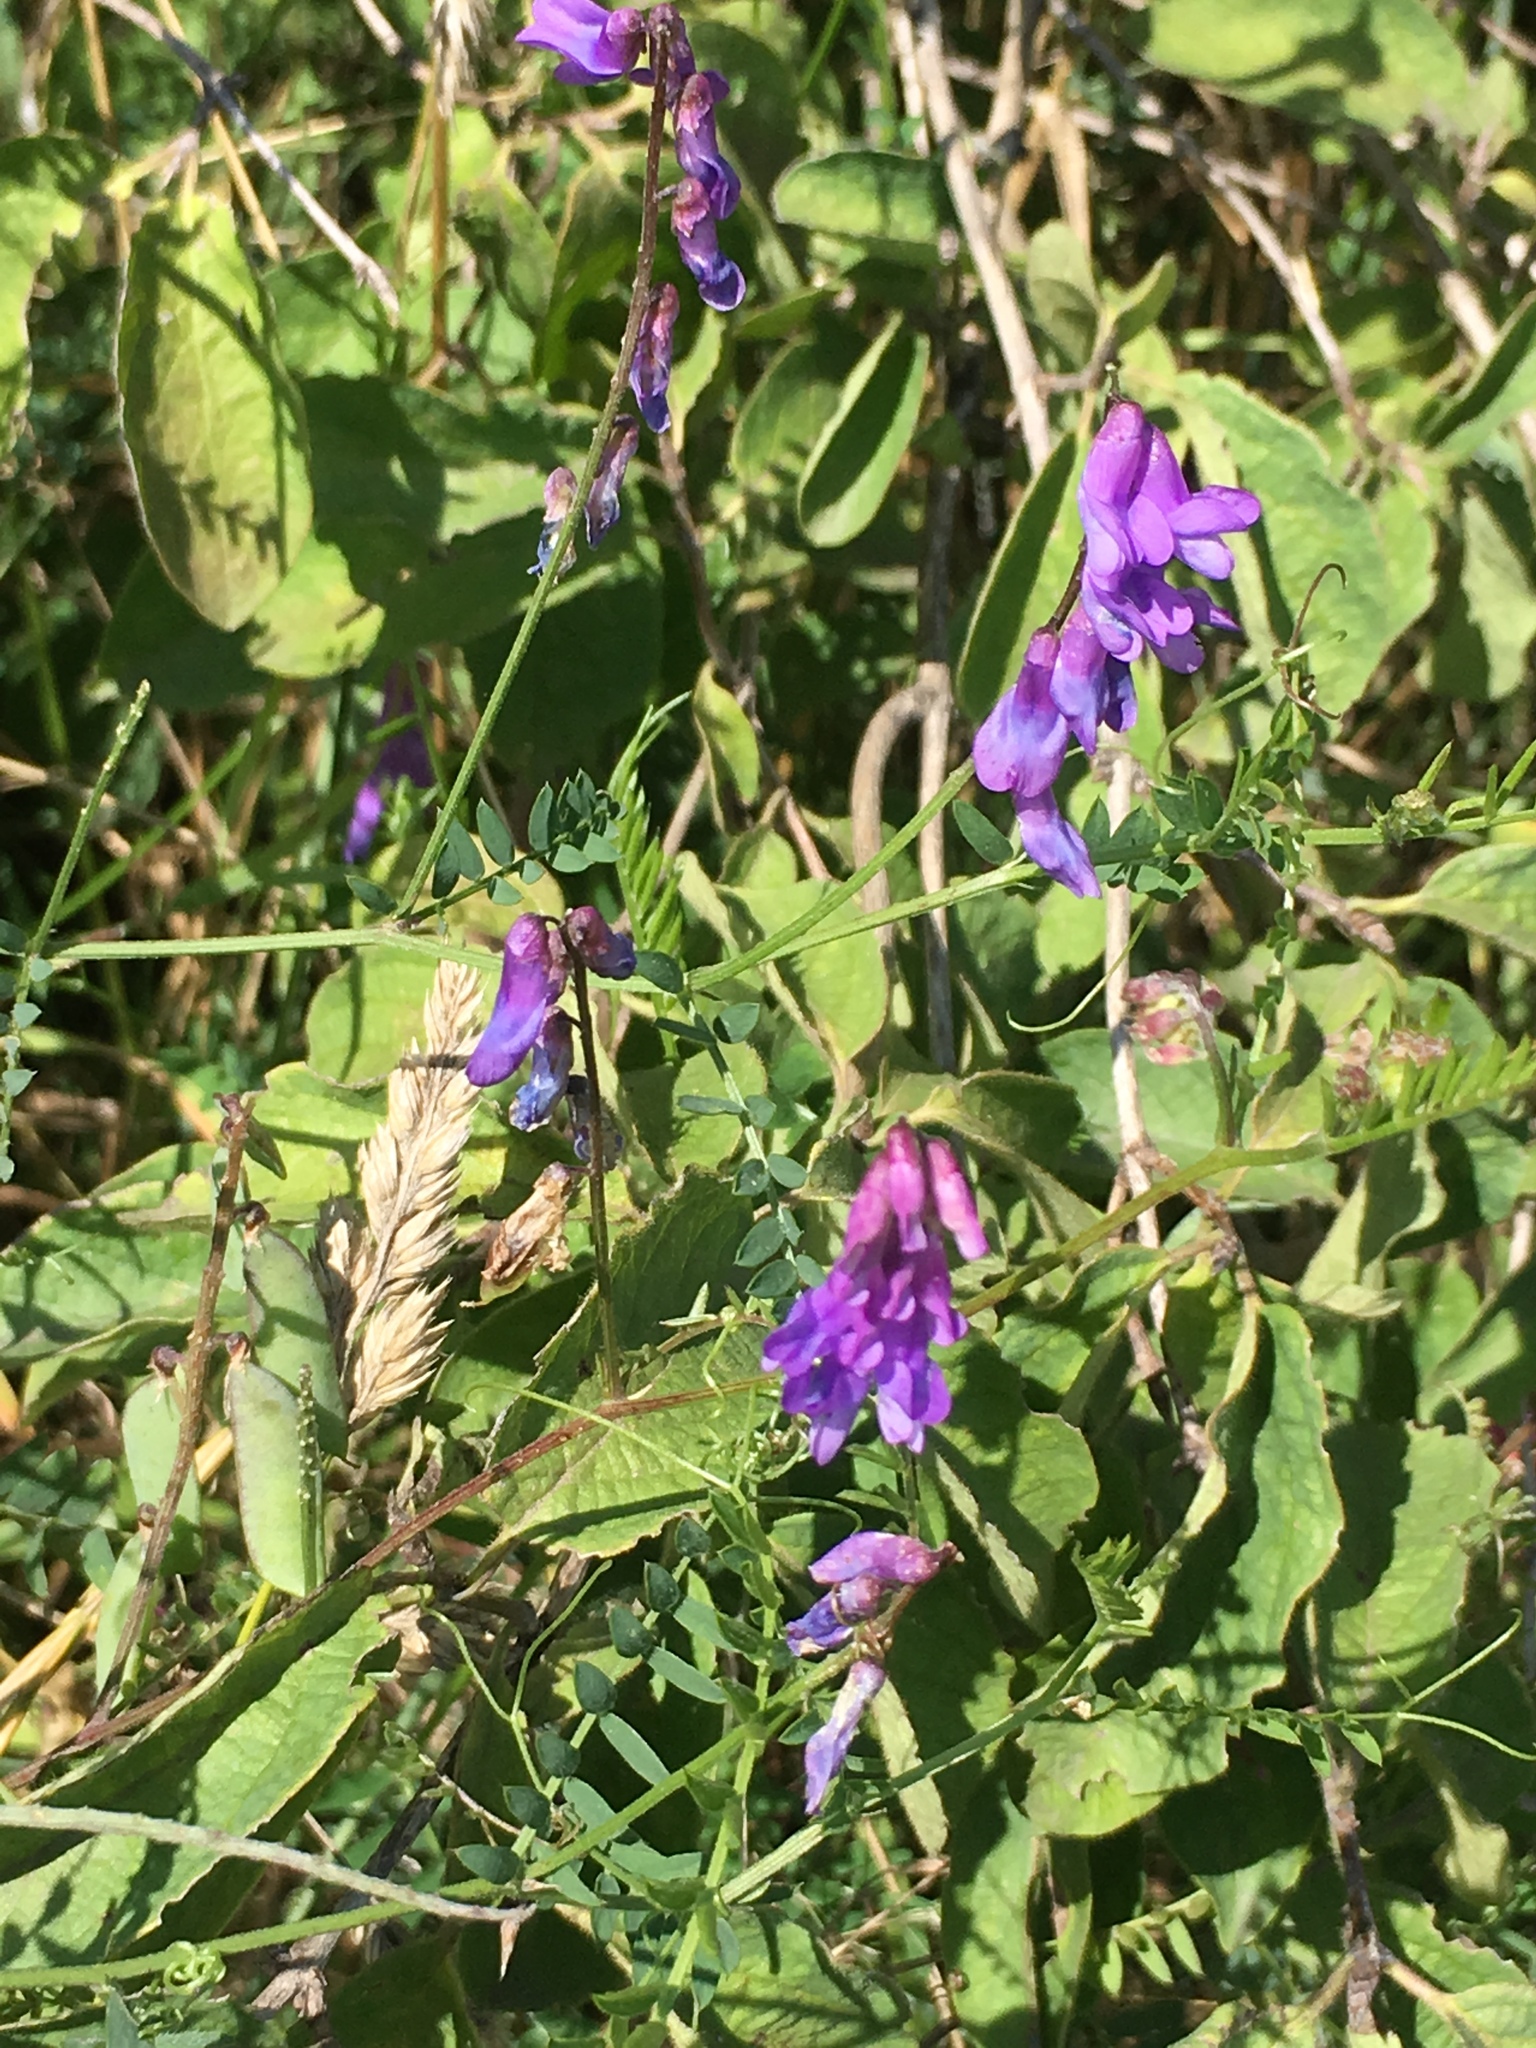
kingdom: Plantae
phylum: Tracheophyta
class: Magnoliopsida
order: Fabales
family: Fabaceae
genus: Vicia
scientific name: Vicia cracca
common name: Bird vetch
